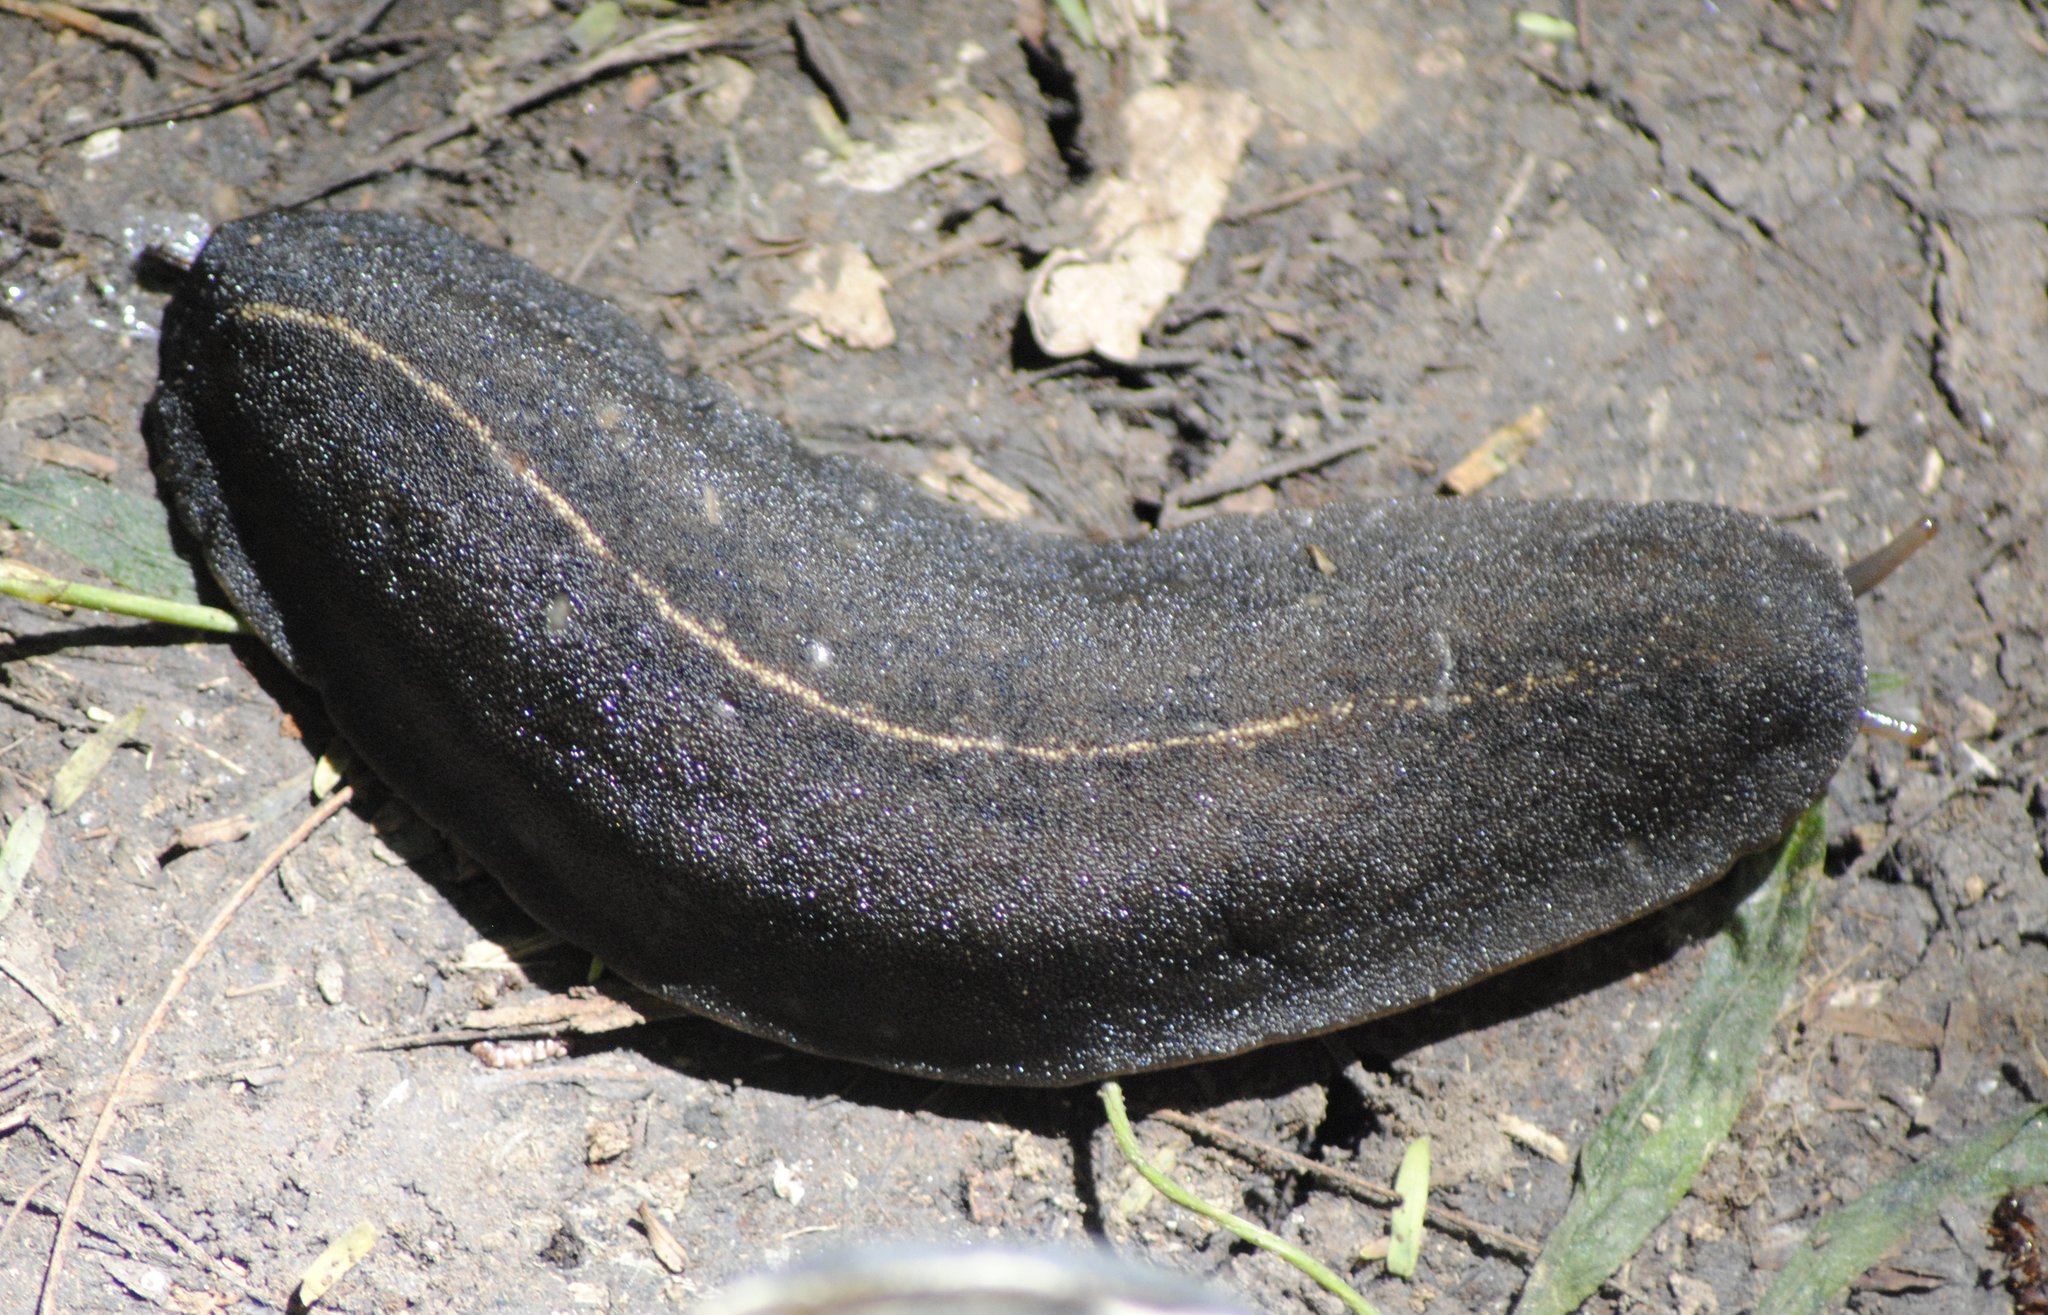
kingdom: Animalia
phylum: Mollusca
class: Gastropoda
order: Systellommatophora
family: Veronicellidae
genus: Laevicaulis
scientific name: Laevicaulis alte
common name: Tropical leatherleaf
